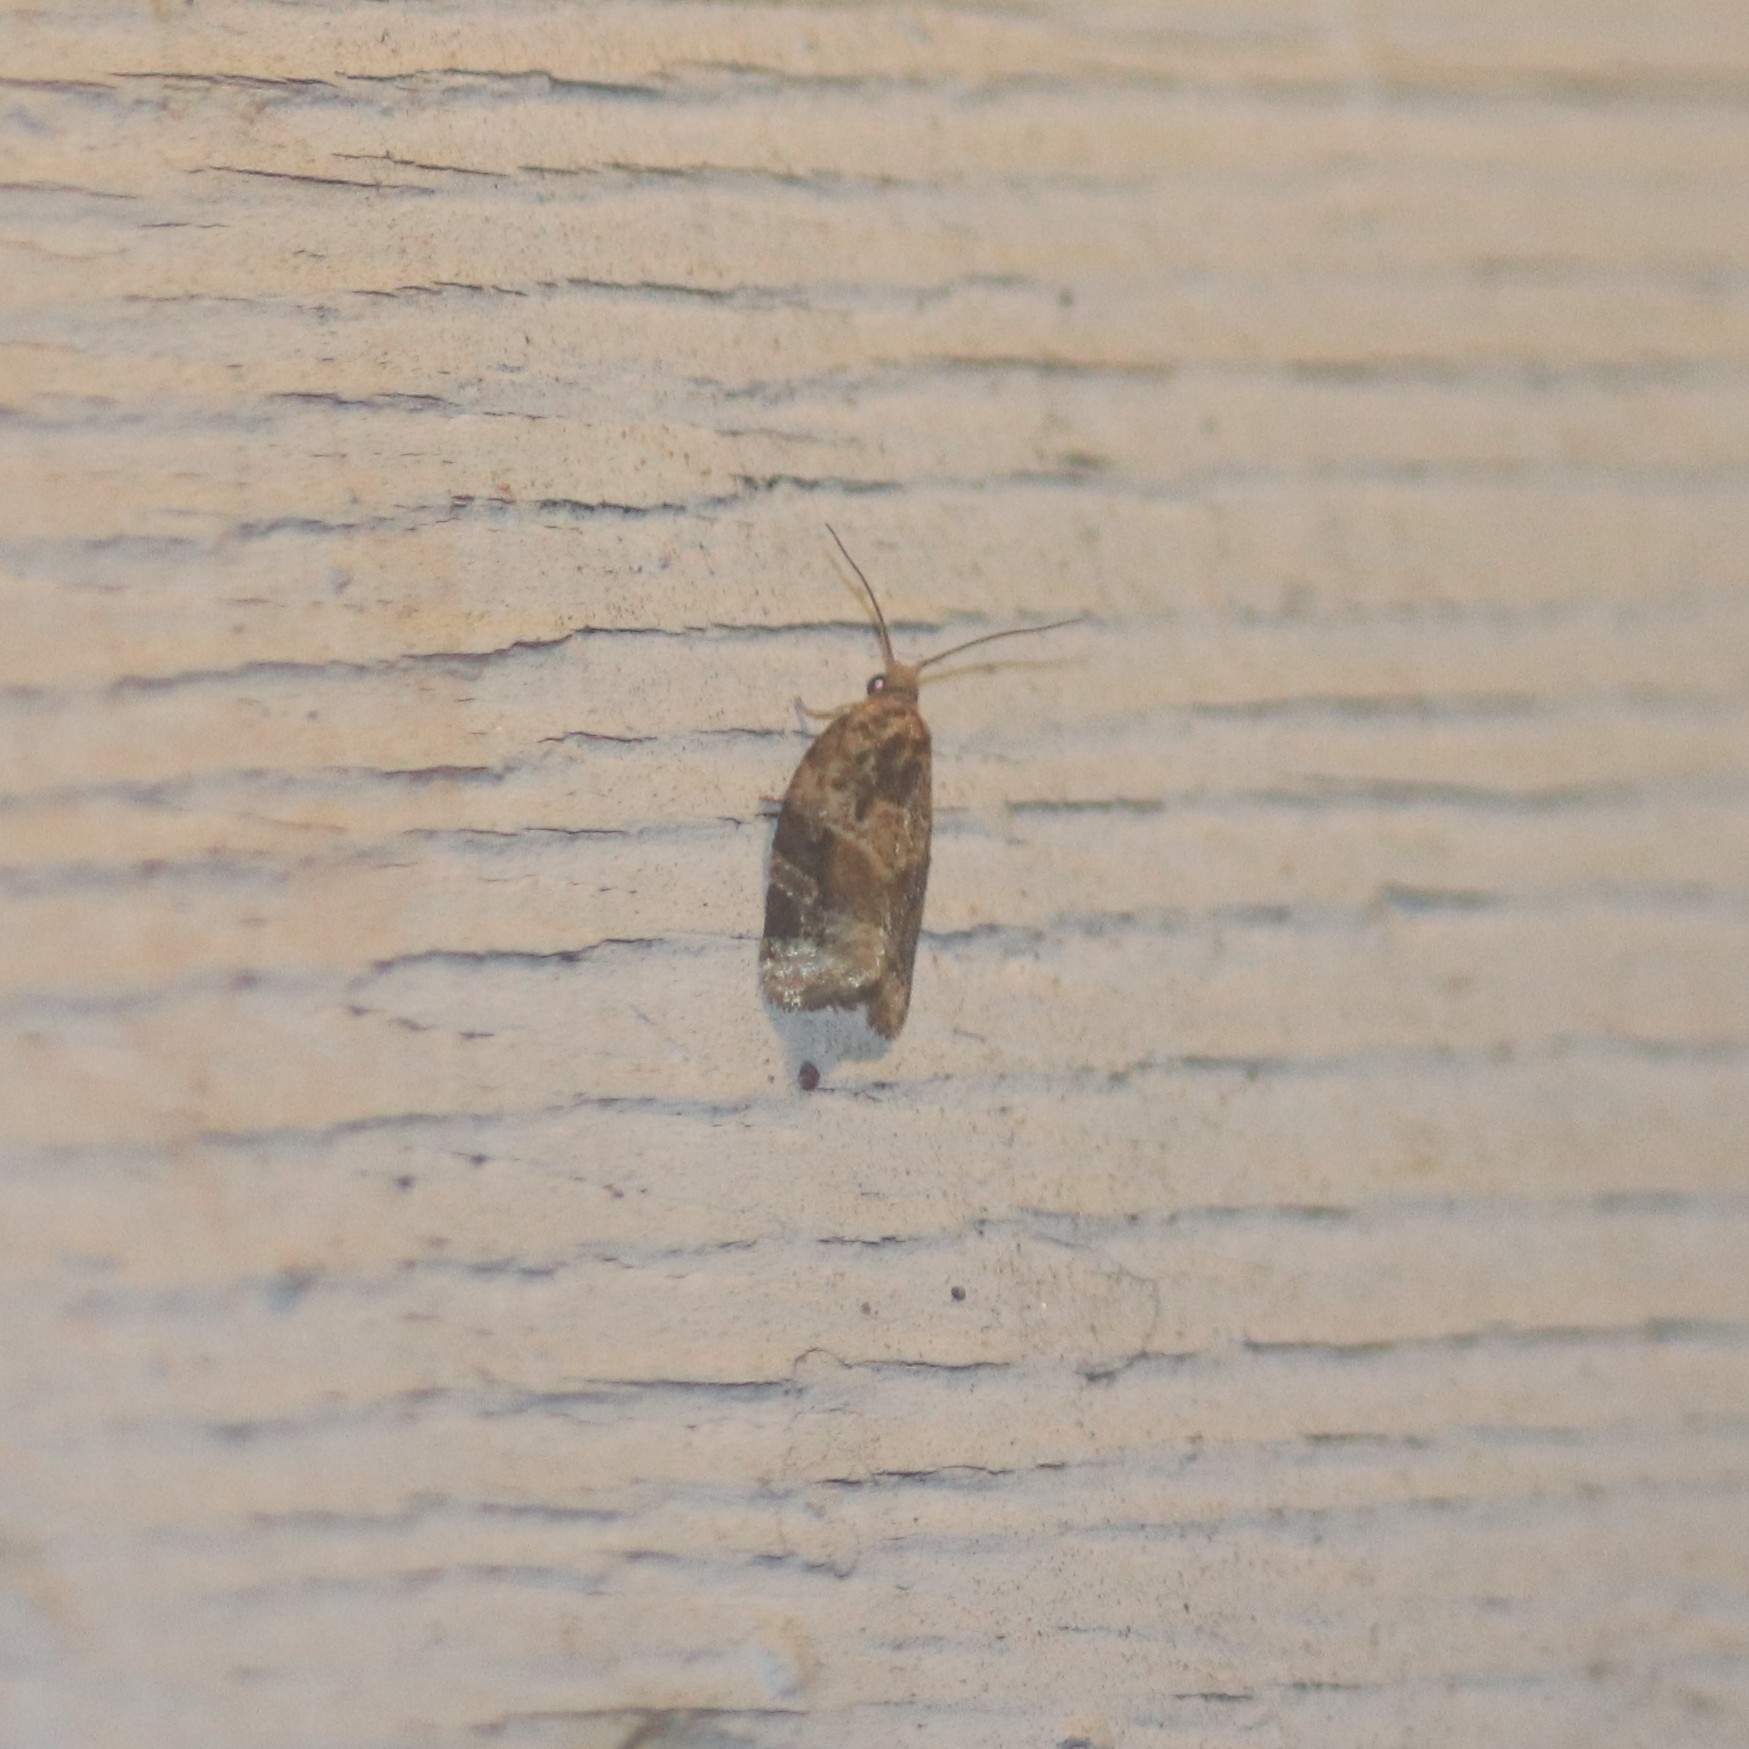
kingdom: Animalia
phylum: Arthropoda
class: Insecta
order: Lepidoptera
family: Tortricidae
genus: Argyrotaenia
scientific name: Argyrotaenia velutinana
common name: Red-banded leafroller moth
